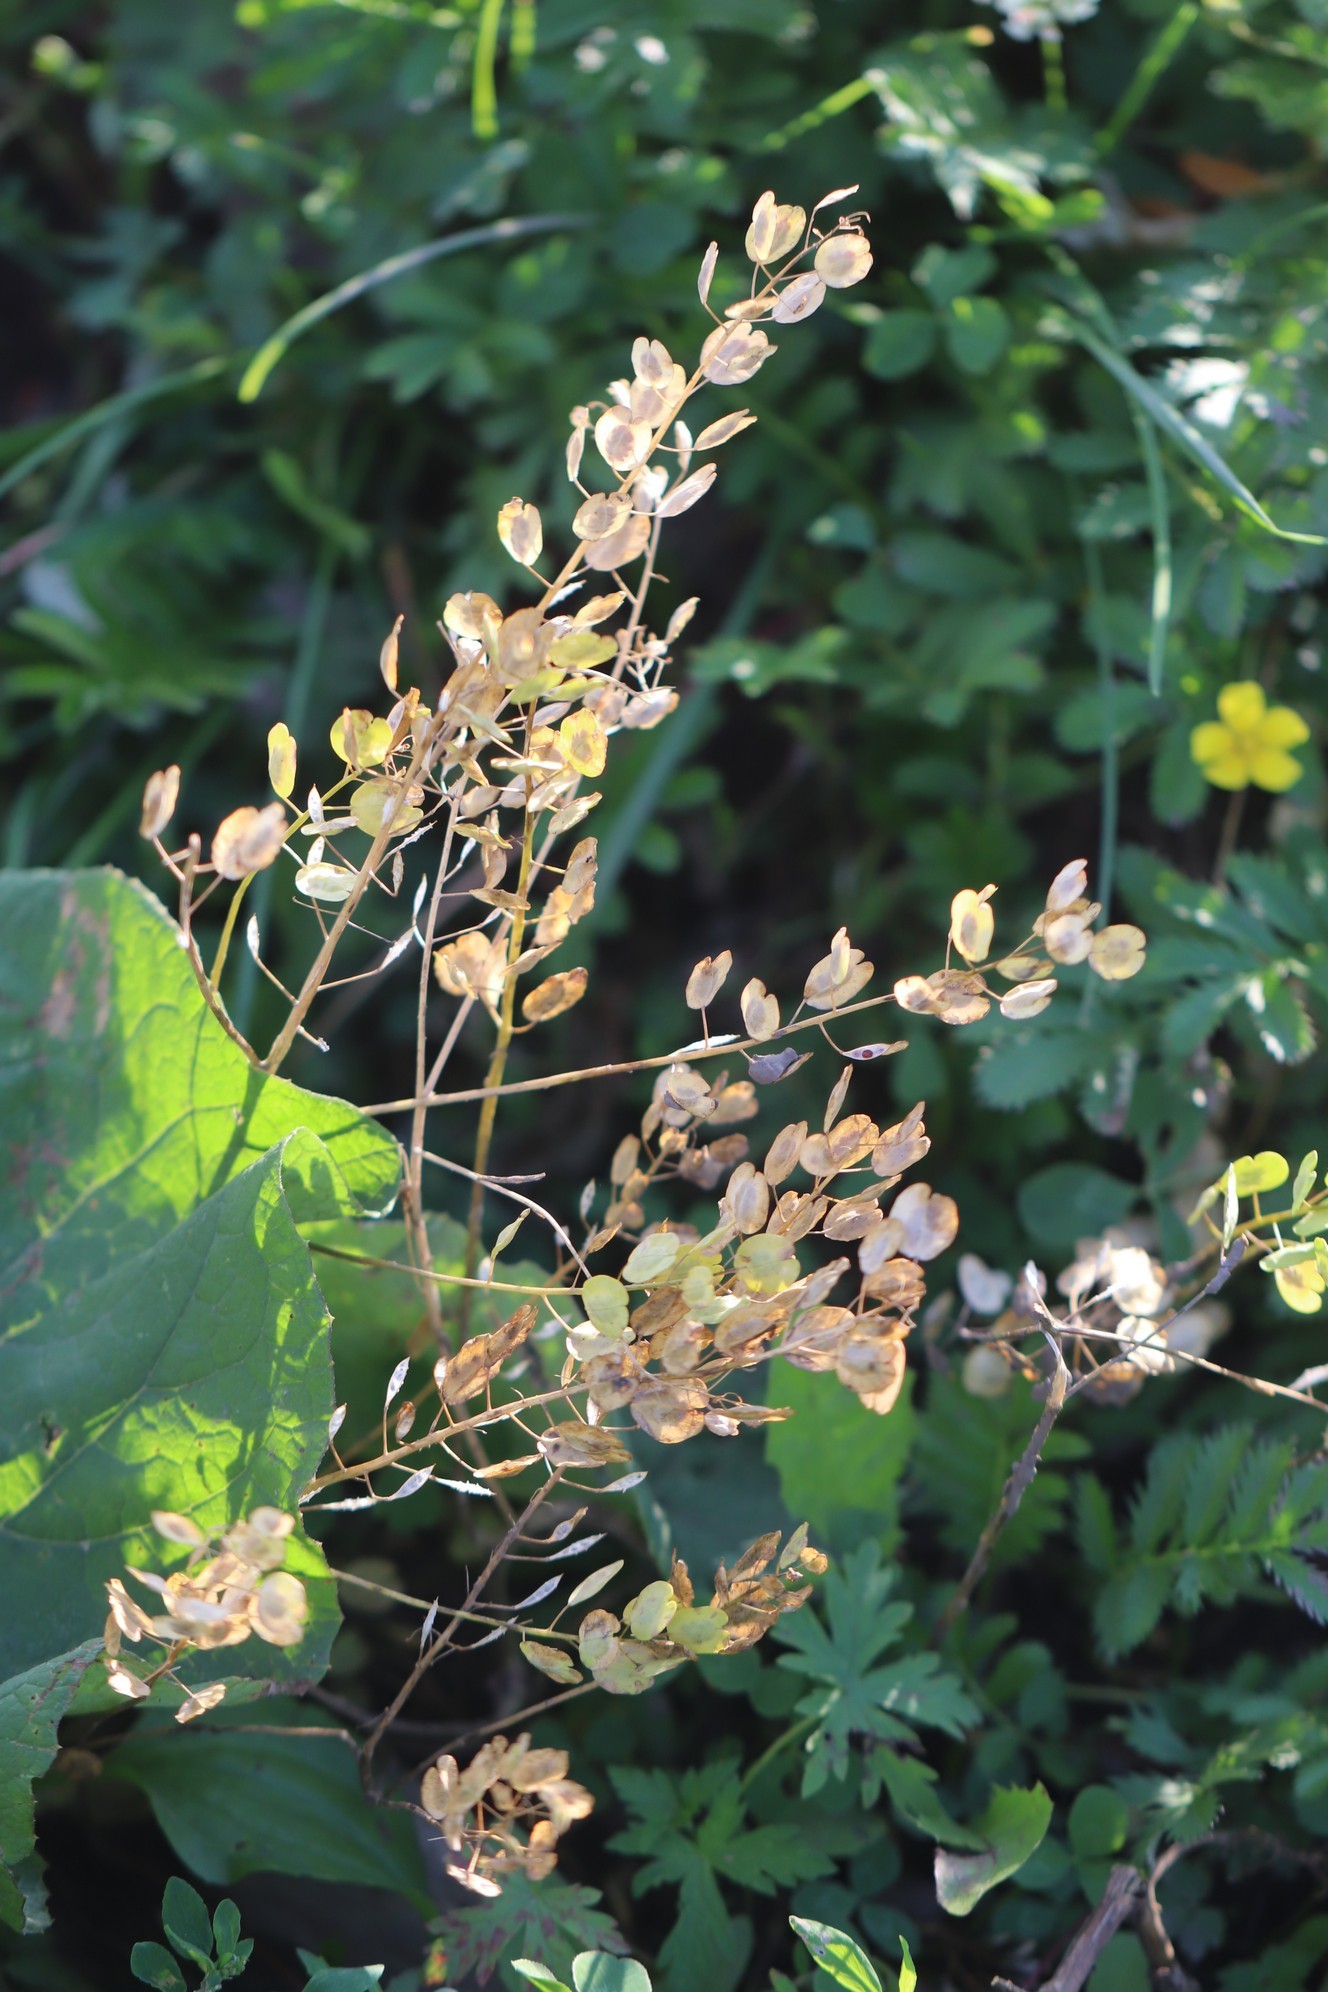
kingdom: Plantae
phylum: Tracheophyta
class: Magnoliopsida
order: Brassicales
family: Brassicaceae
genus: Thlaspi
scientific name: Thlaspi arvense
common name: Field pennycress
